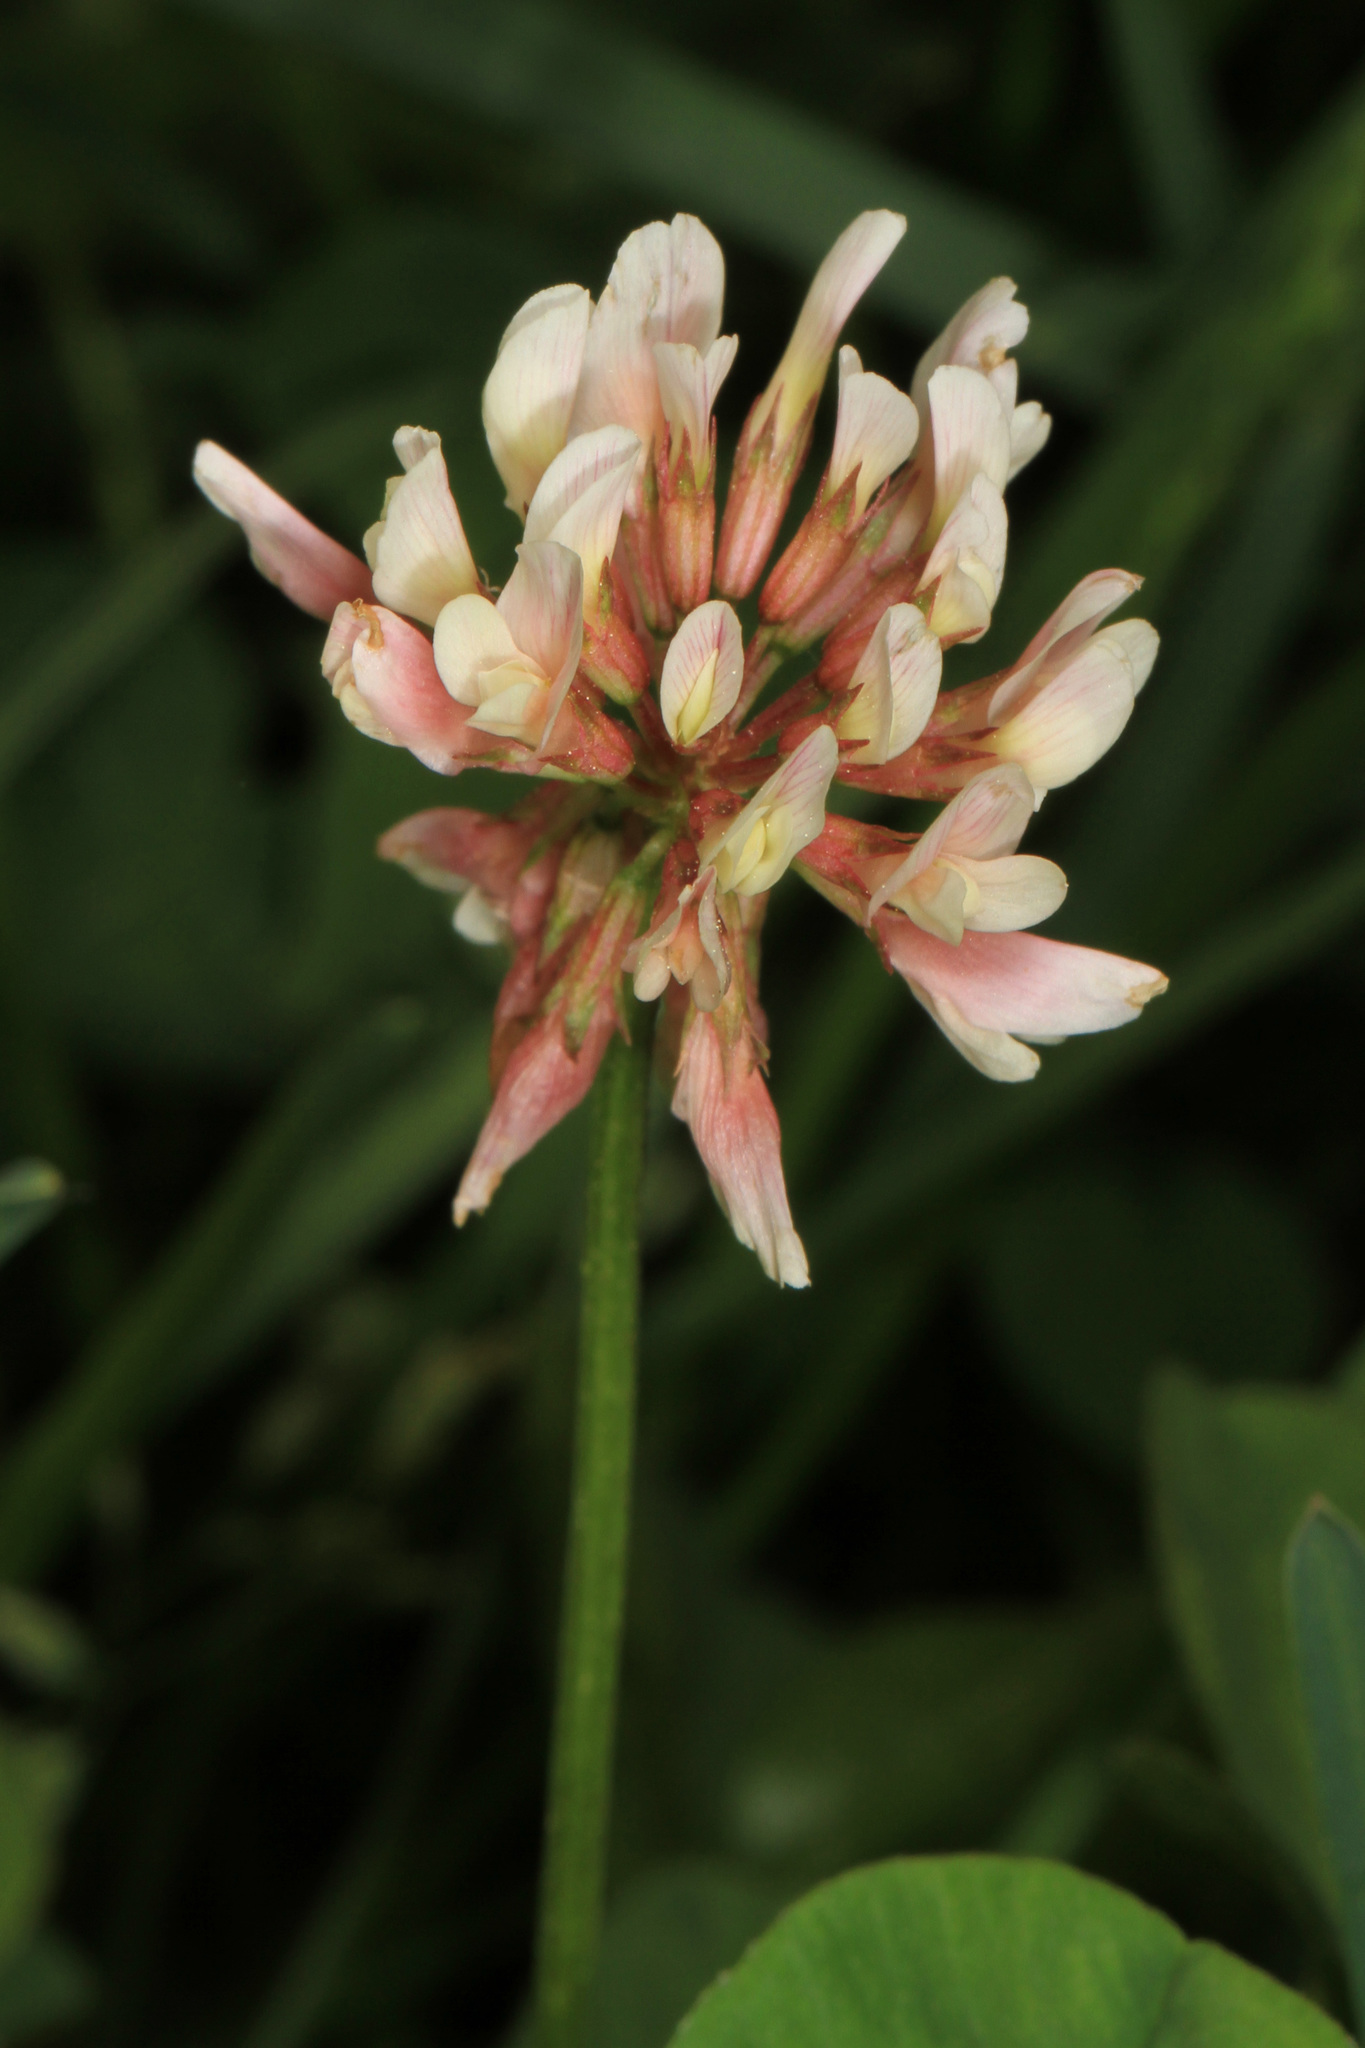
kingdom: Plantae
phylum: Tracheophyta
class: Magnoliopsida
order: Fabales
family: Fabaceae
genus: Trifolium
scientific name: Trifolium repens
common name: White clover
